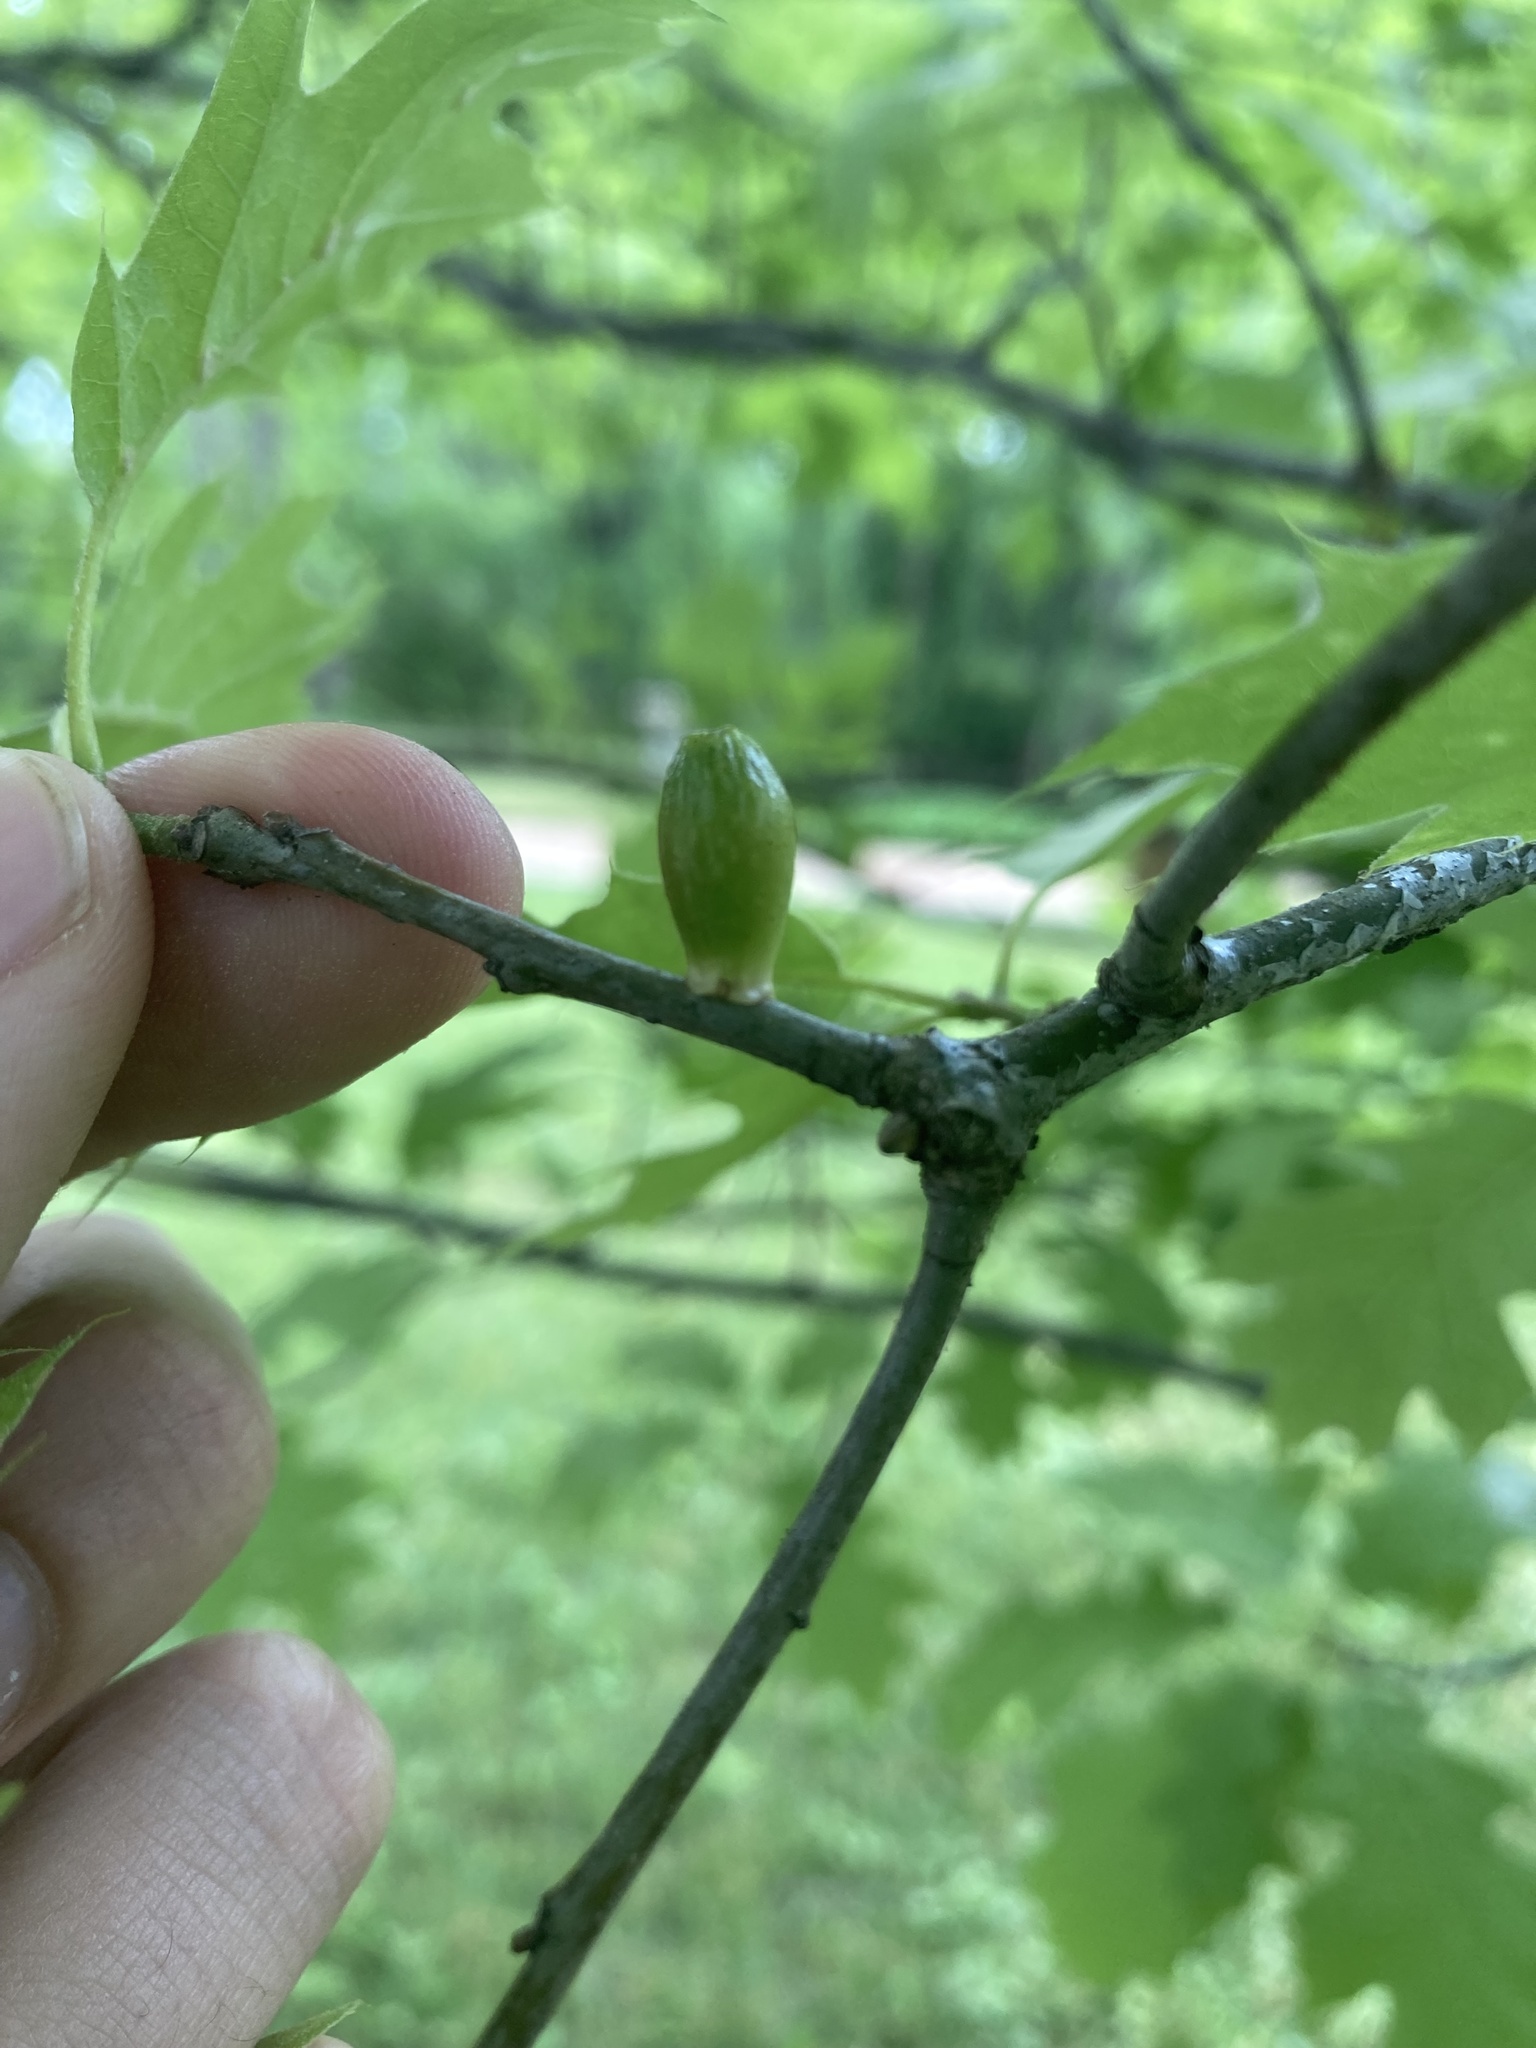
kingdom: Animalia
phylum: Arthropoda
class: Insecta
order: Hymenoptera
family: Cynipidae
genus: Amphibolips
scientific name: Amphibolips
